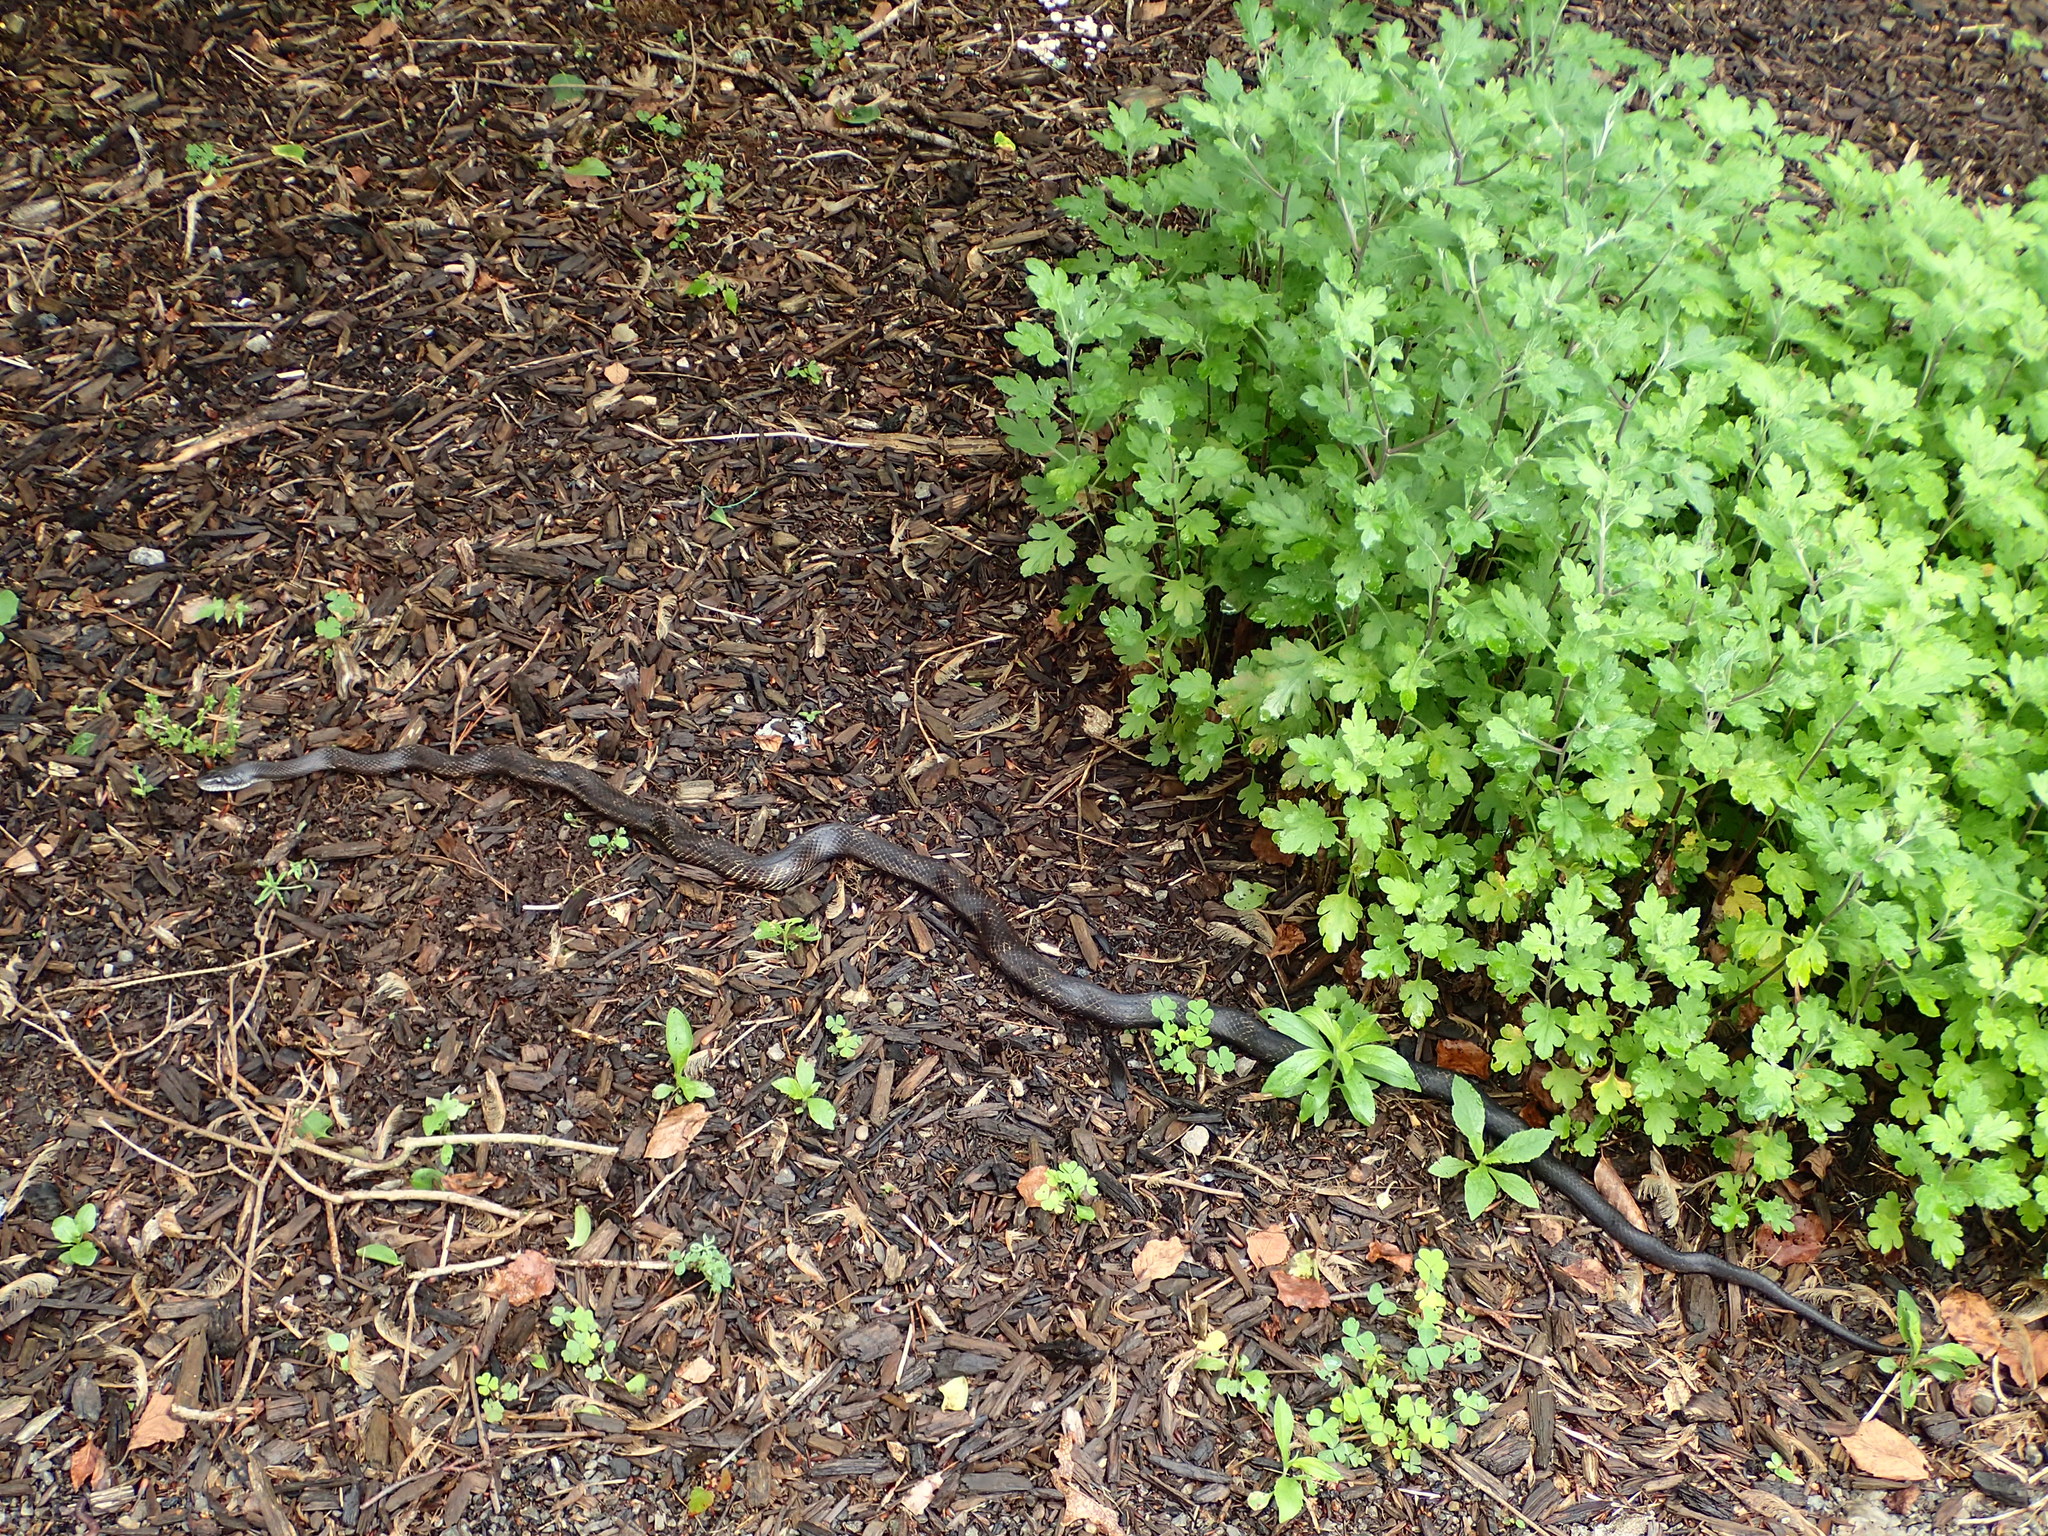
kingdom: Animalia
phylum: Chordata
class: Squamata
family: Colubridae
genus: Pantherophis
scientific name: Pantherophis
